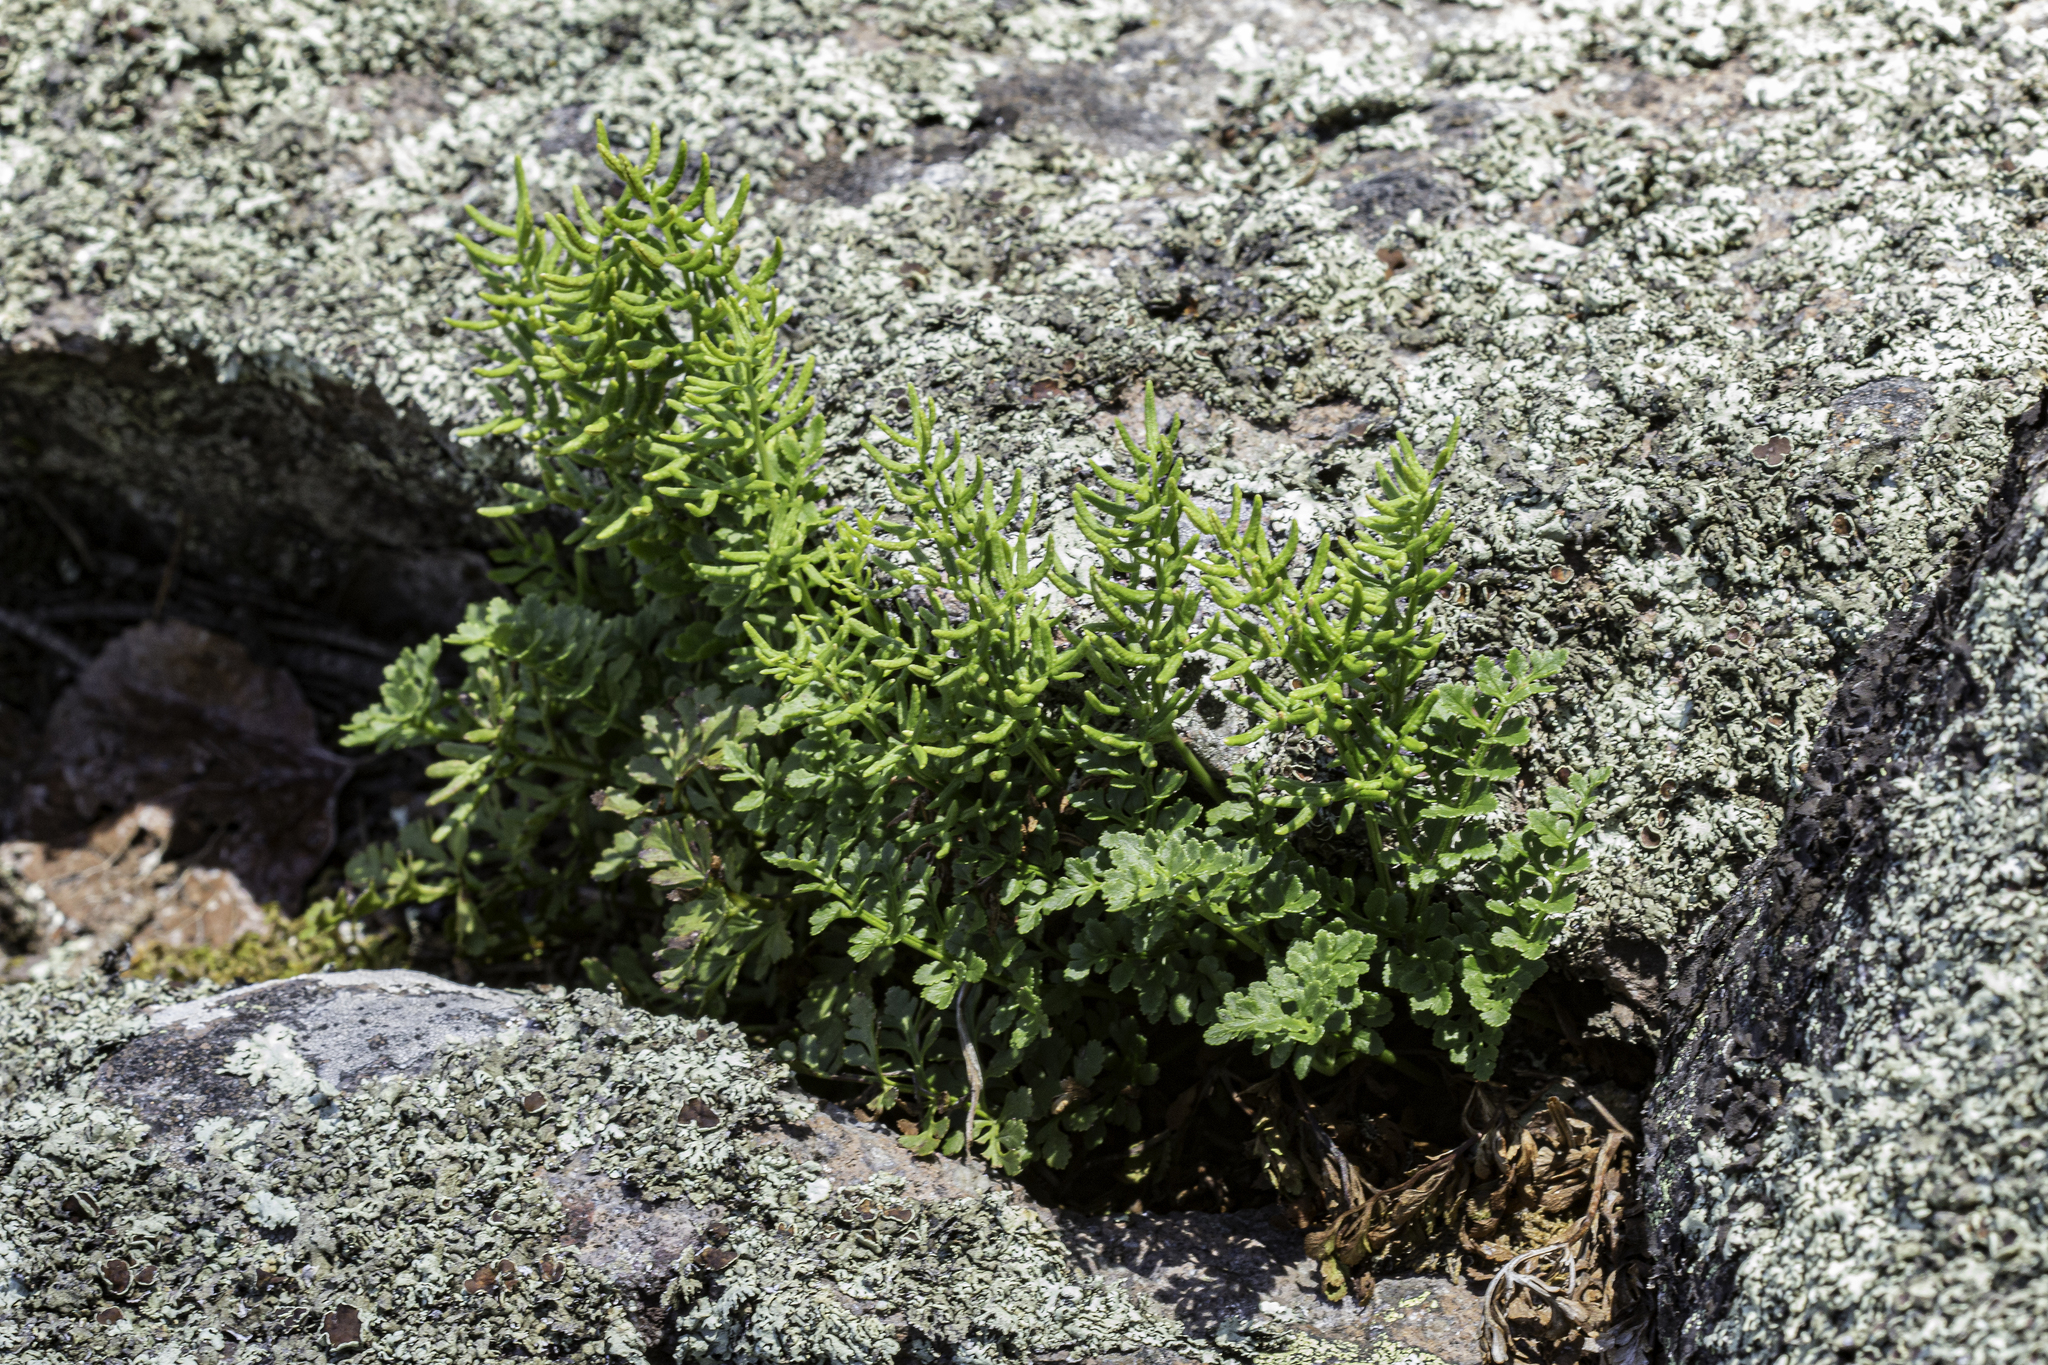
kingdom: Plantae
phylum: Tracheophyta
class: Polypodiopsida
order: Polypodiales
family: Pteridaceae
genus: Cryptogramma
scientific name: Cryptogramma acrostichoides
